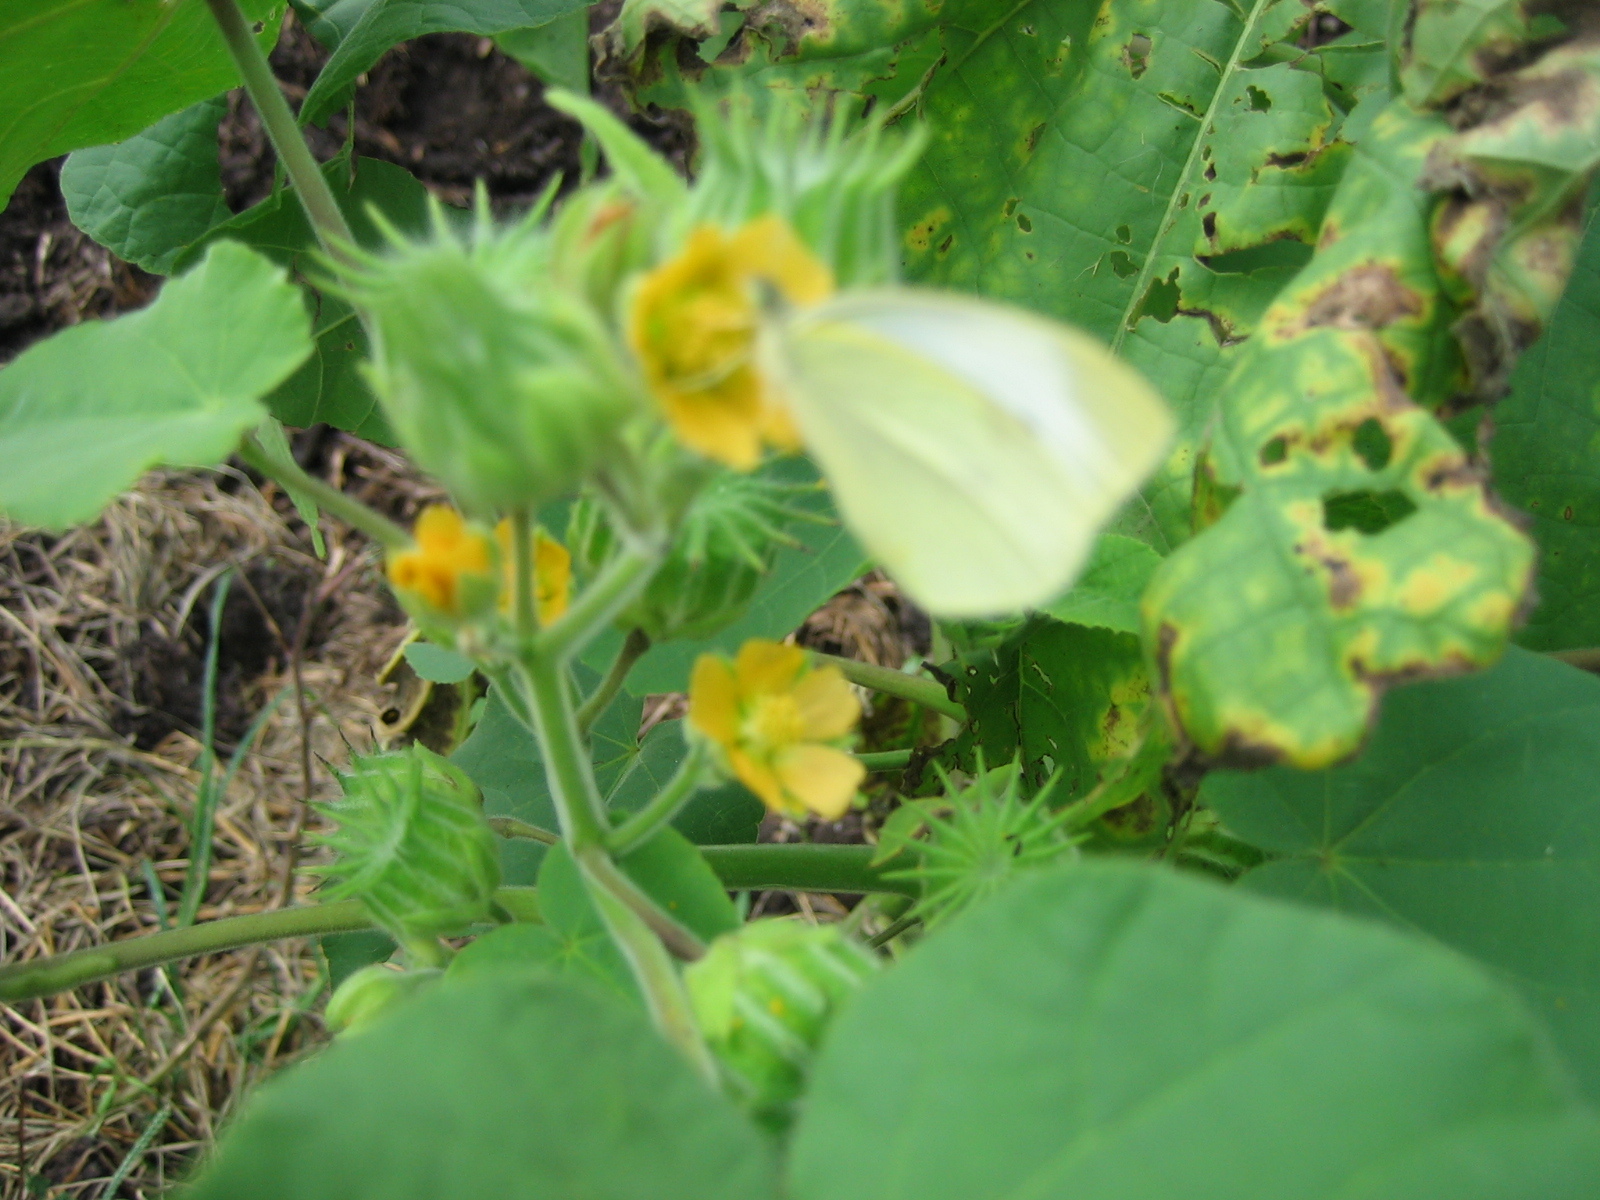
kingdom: Animalia
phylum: Arthropoda
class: Insecta
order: Lepidoptera
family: Pieridae
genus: Pieris
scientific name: Pieris rapae
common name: Small white
